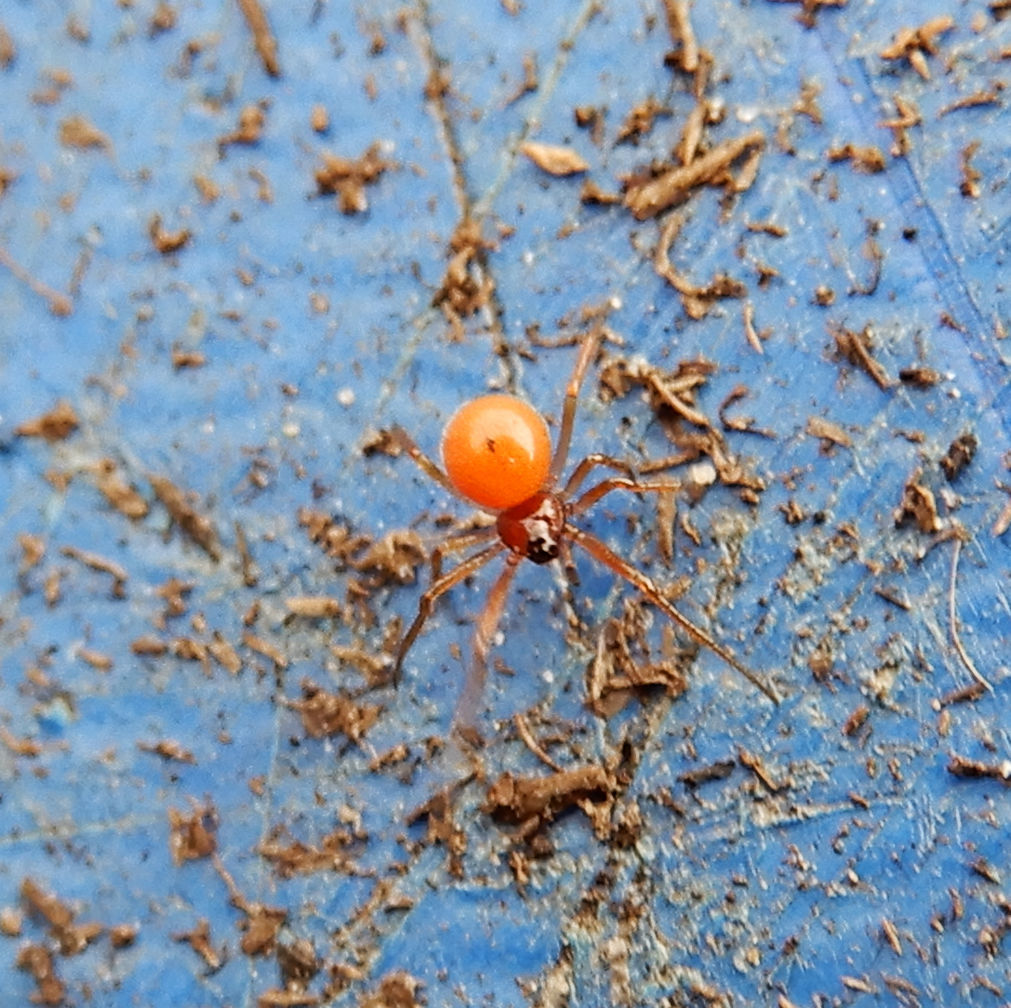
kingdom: Animalia
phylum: Arthropoda
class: Arachnida
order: Araneae
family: Theridiidae
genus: Thymoites
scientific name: Thymoites unimaculatus
